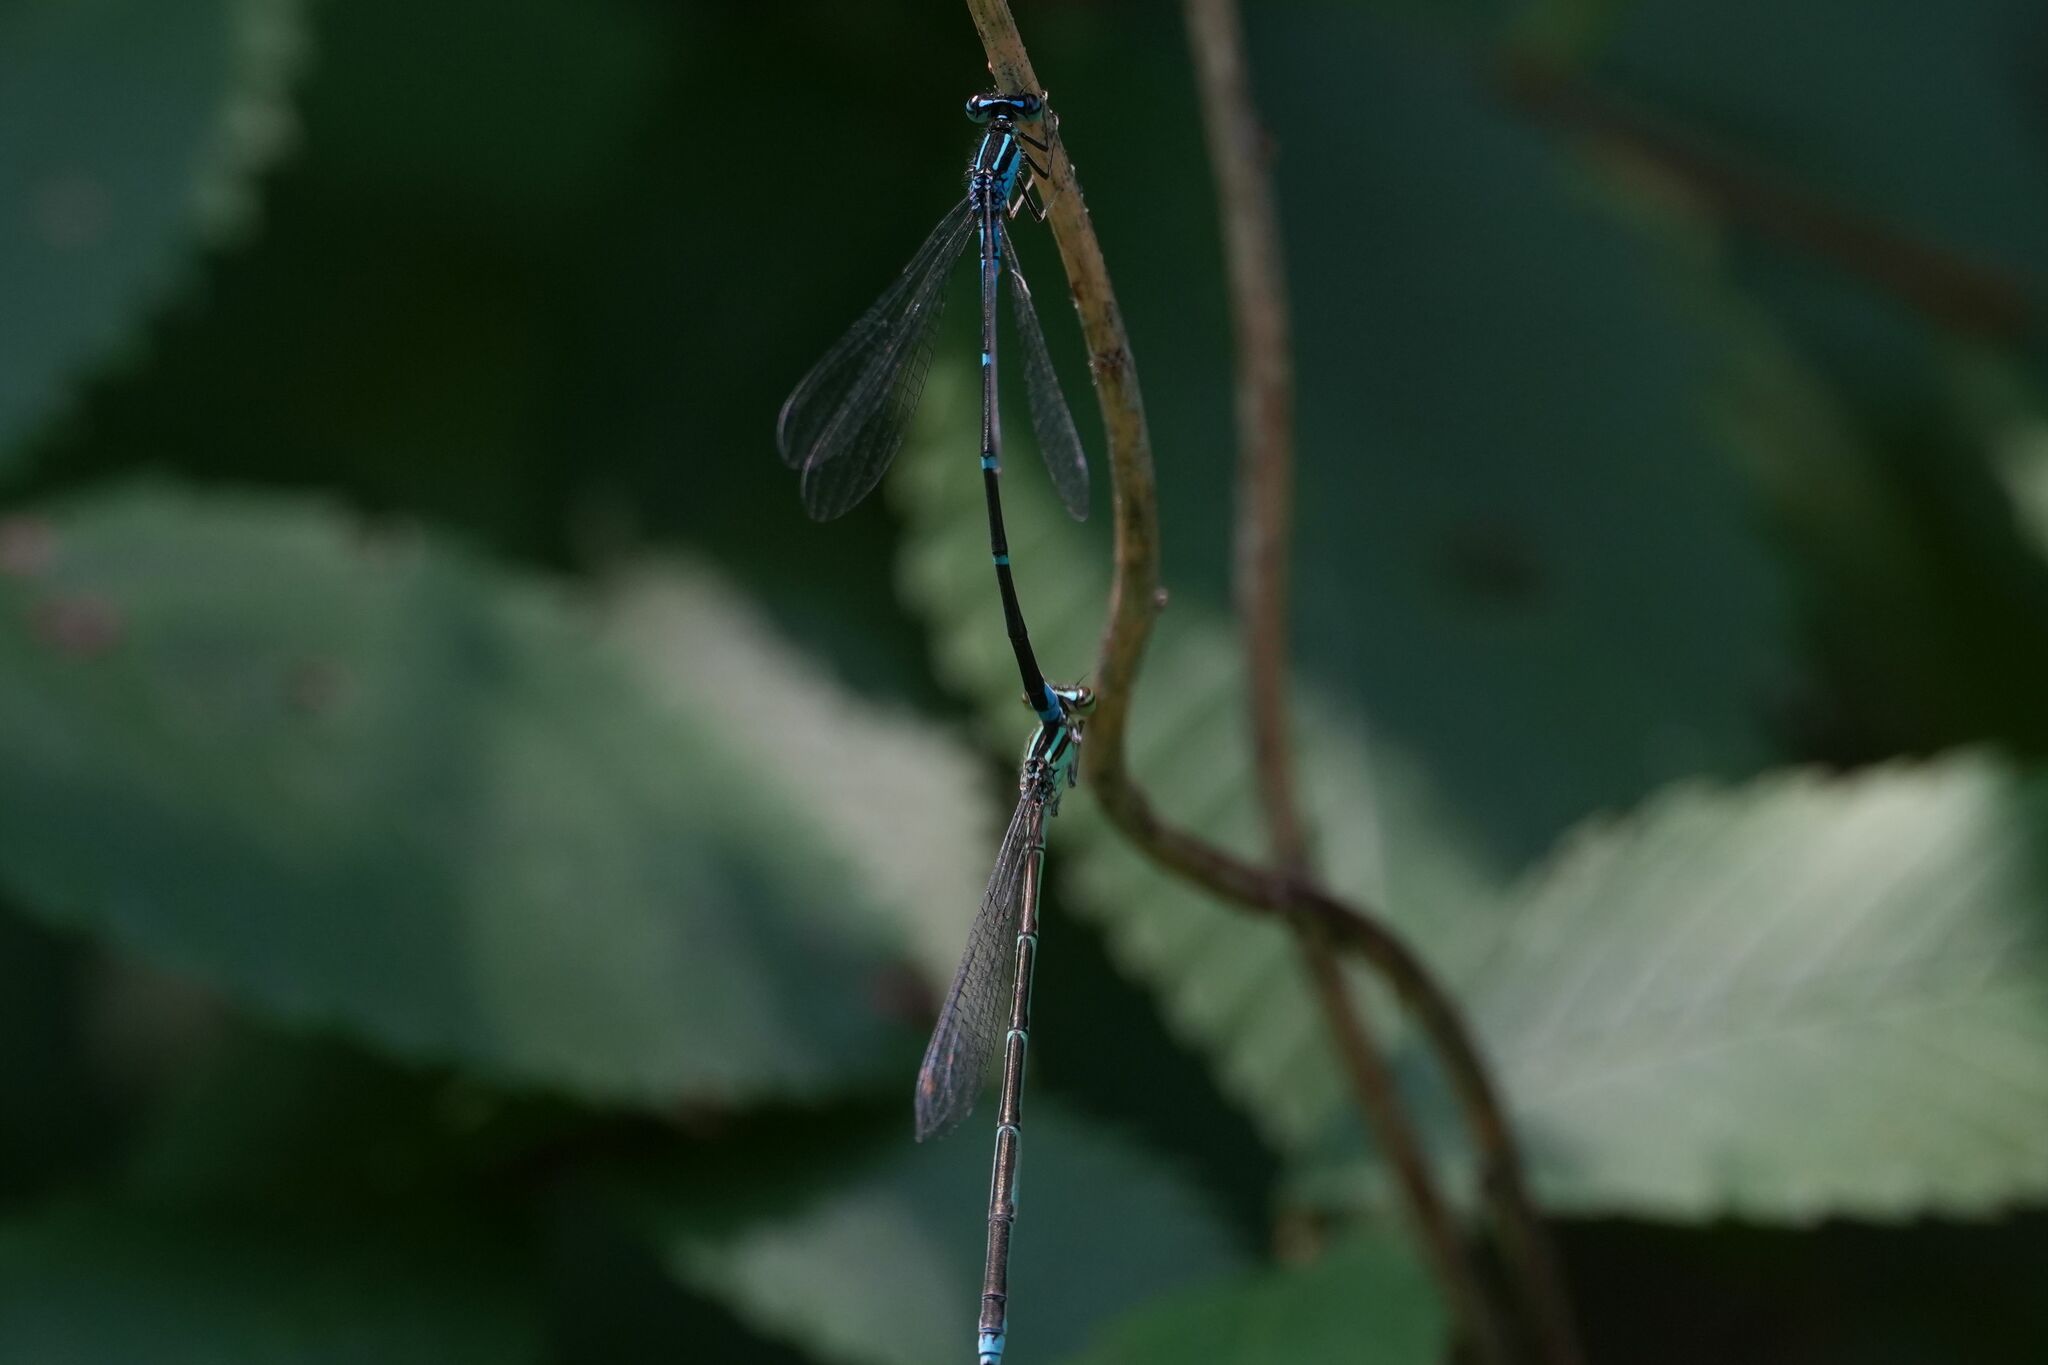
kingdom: Animalia
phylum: Arthropoda
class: Insecta
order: Odonata
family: Coenagrionidae
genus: Enallagma
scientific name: Enallagma exsulans
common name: Stream bluet
